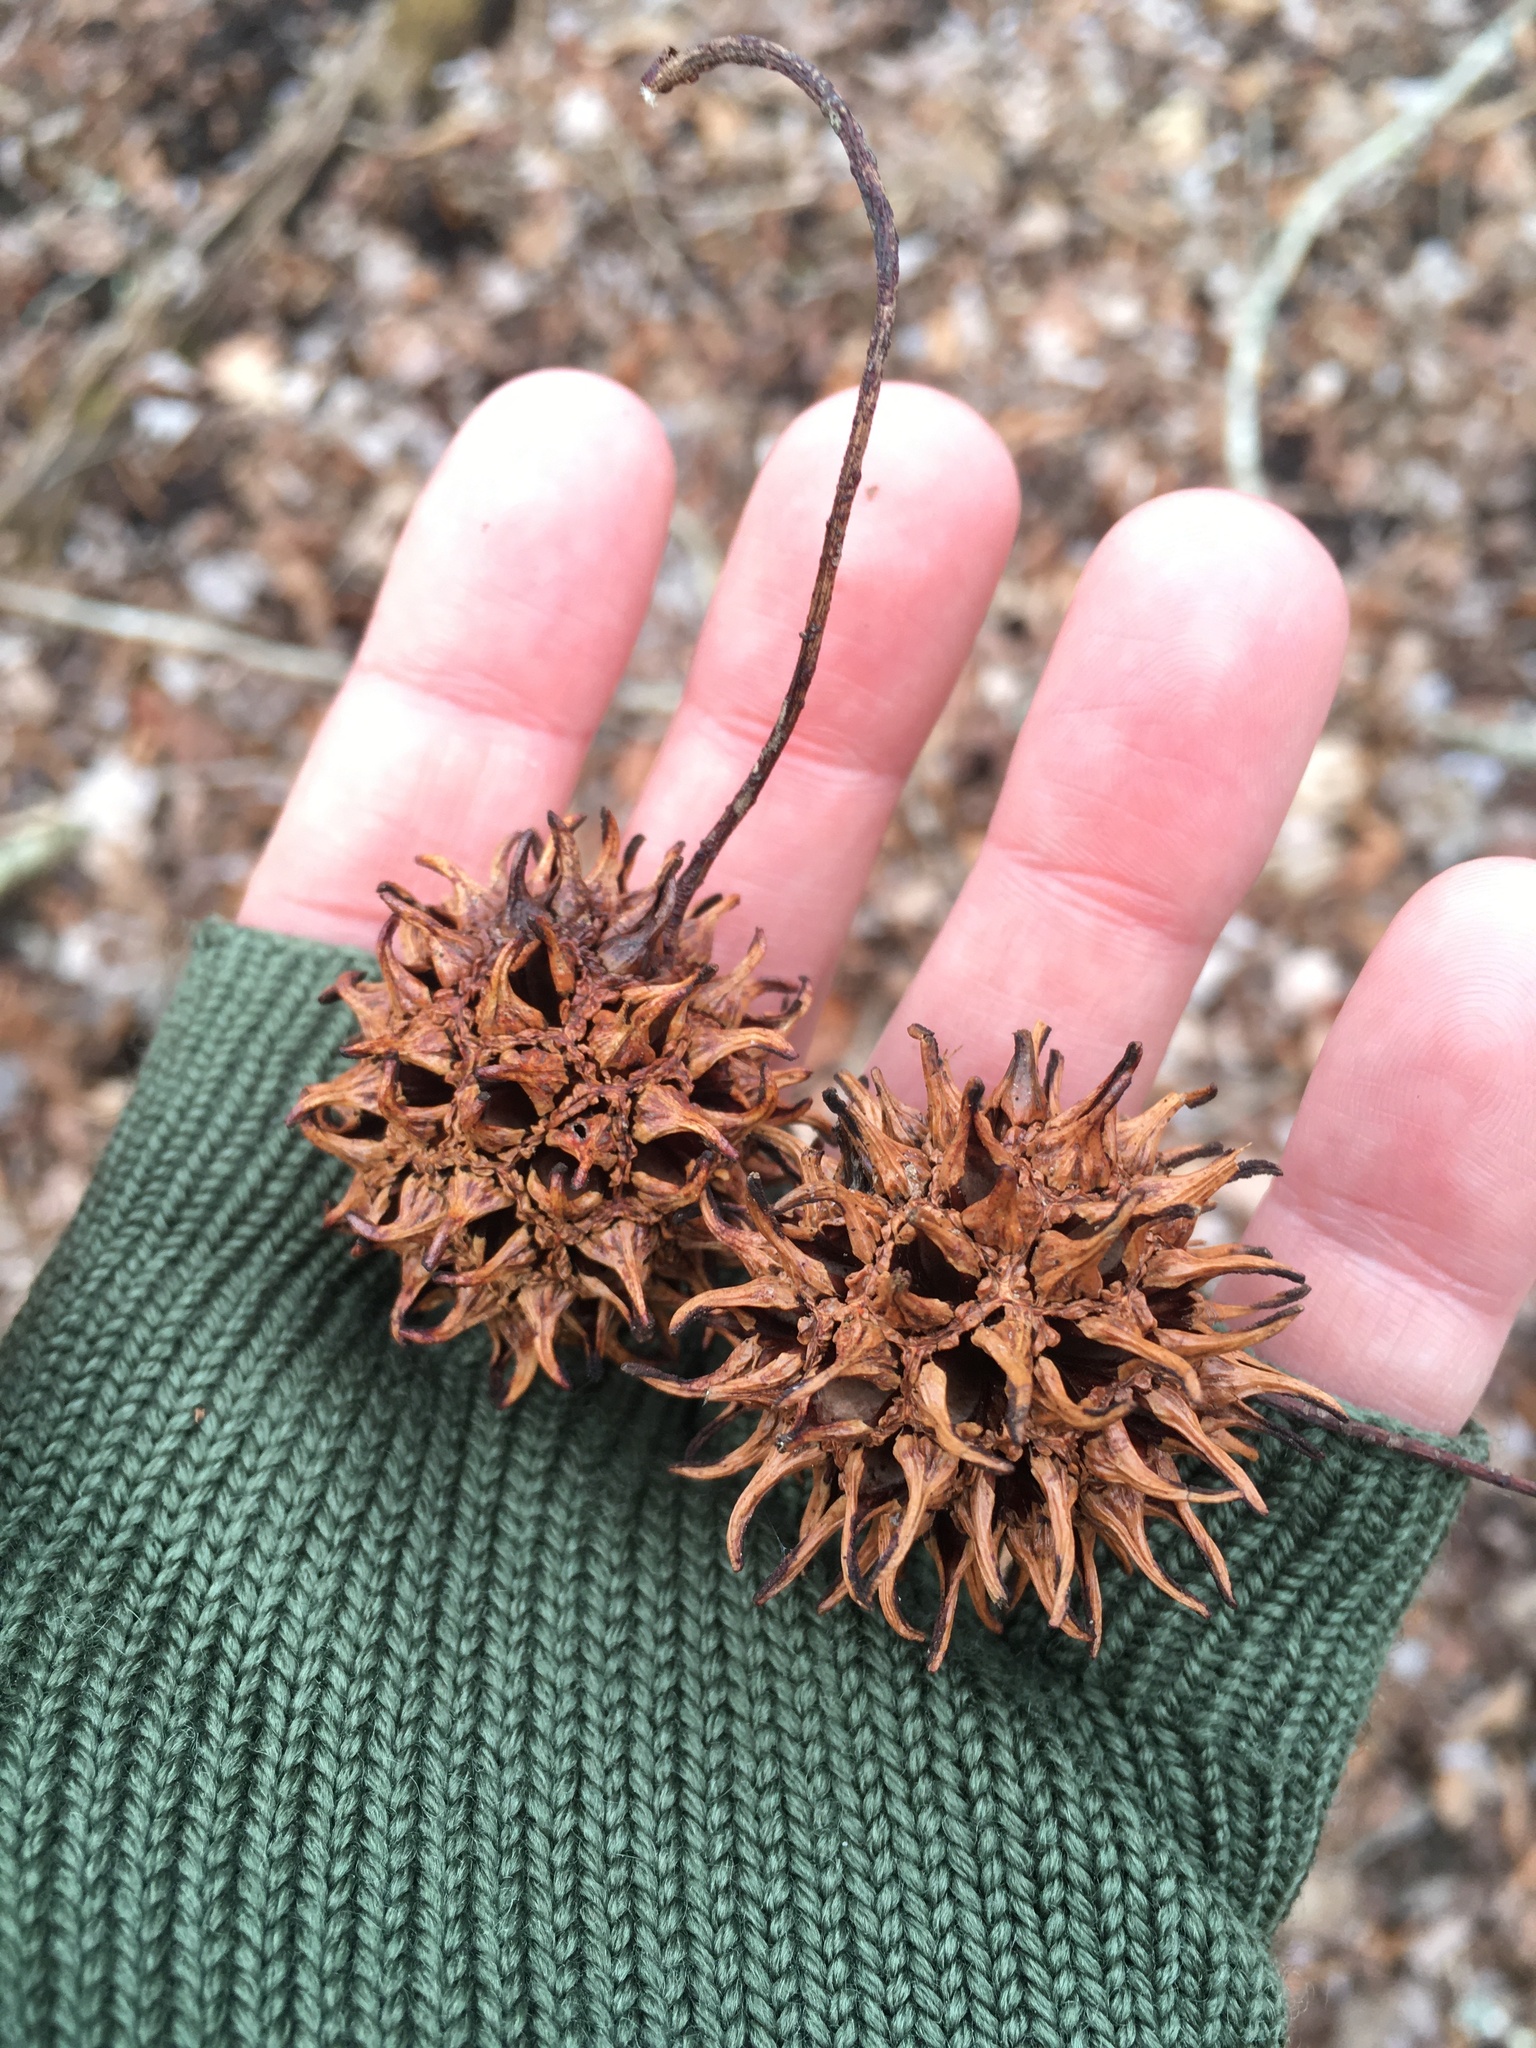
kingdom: Plantae
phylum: Tracheophyta
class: Magnoliopsida
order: Saxifragales
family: Altingiaceae
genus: Liquidambar
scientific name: Liquidambar styraciflua
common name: Sweet gum
